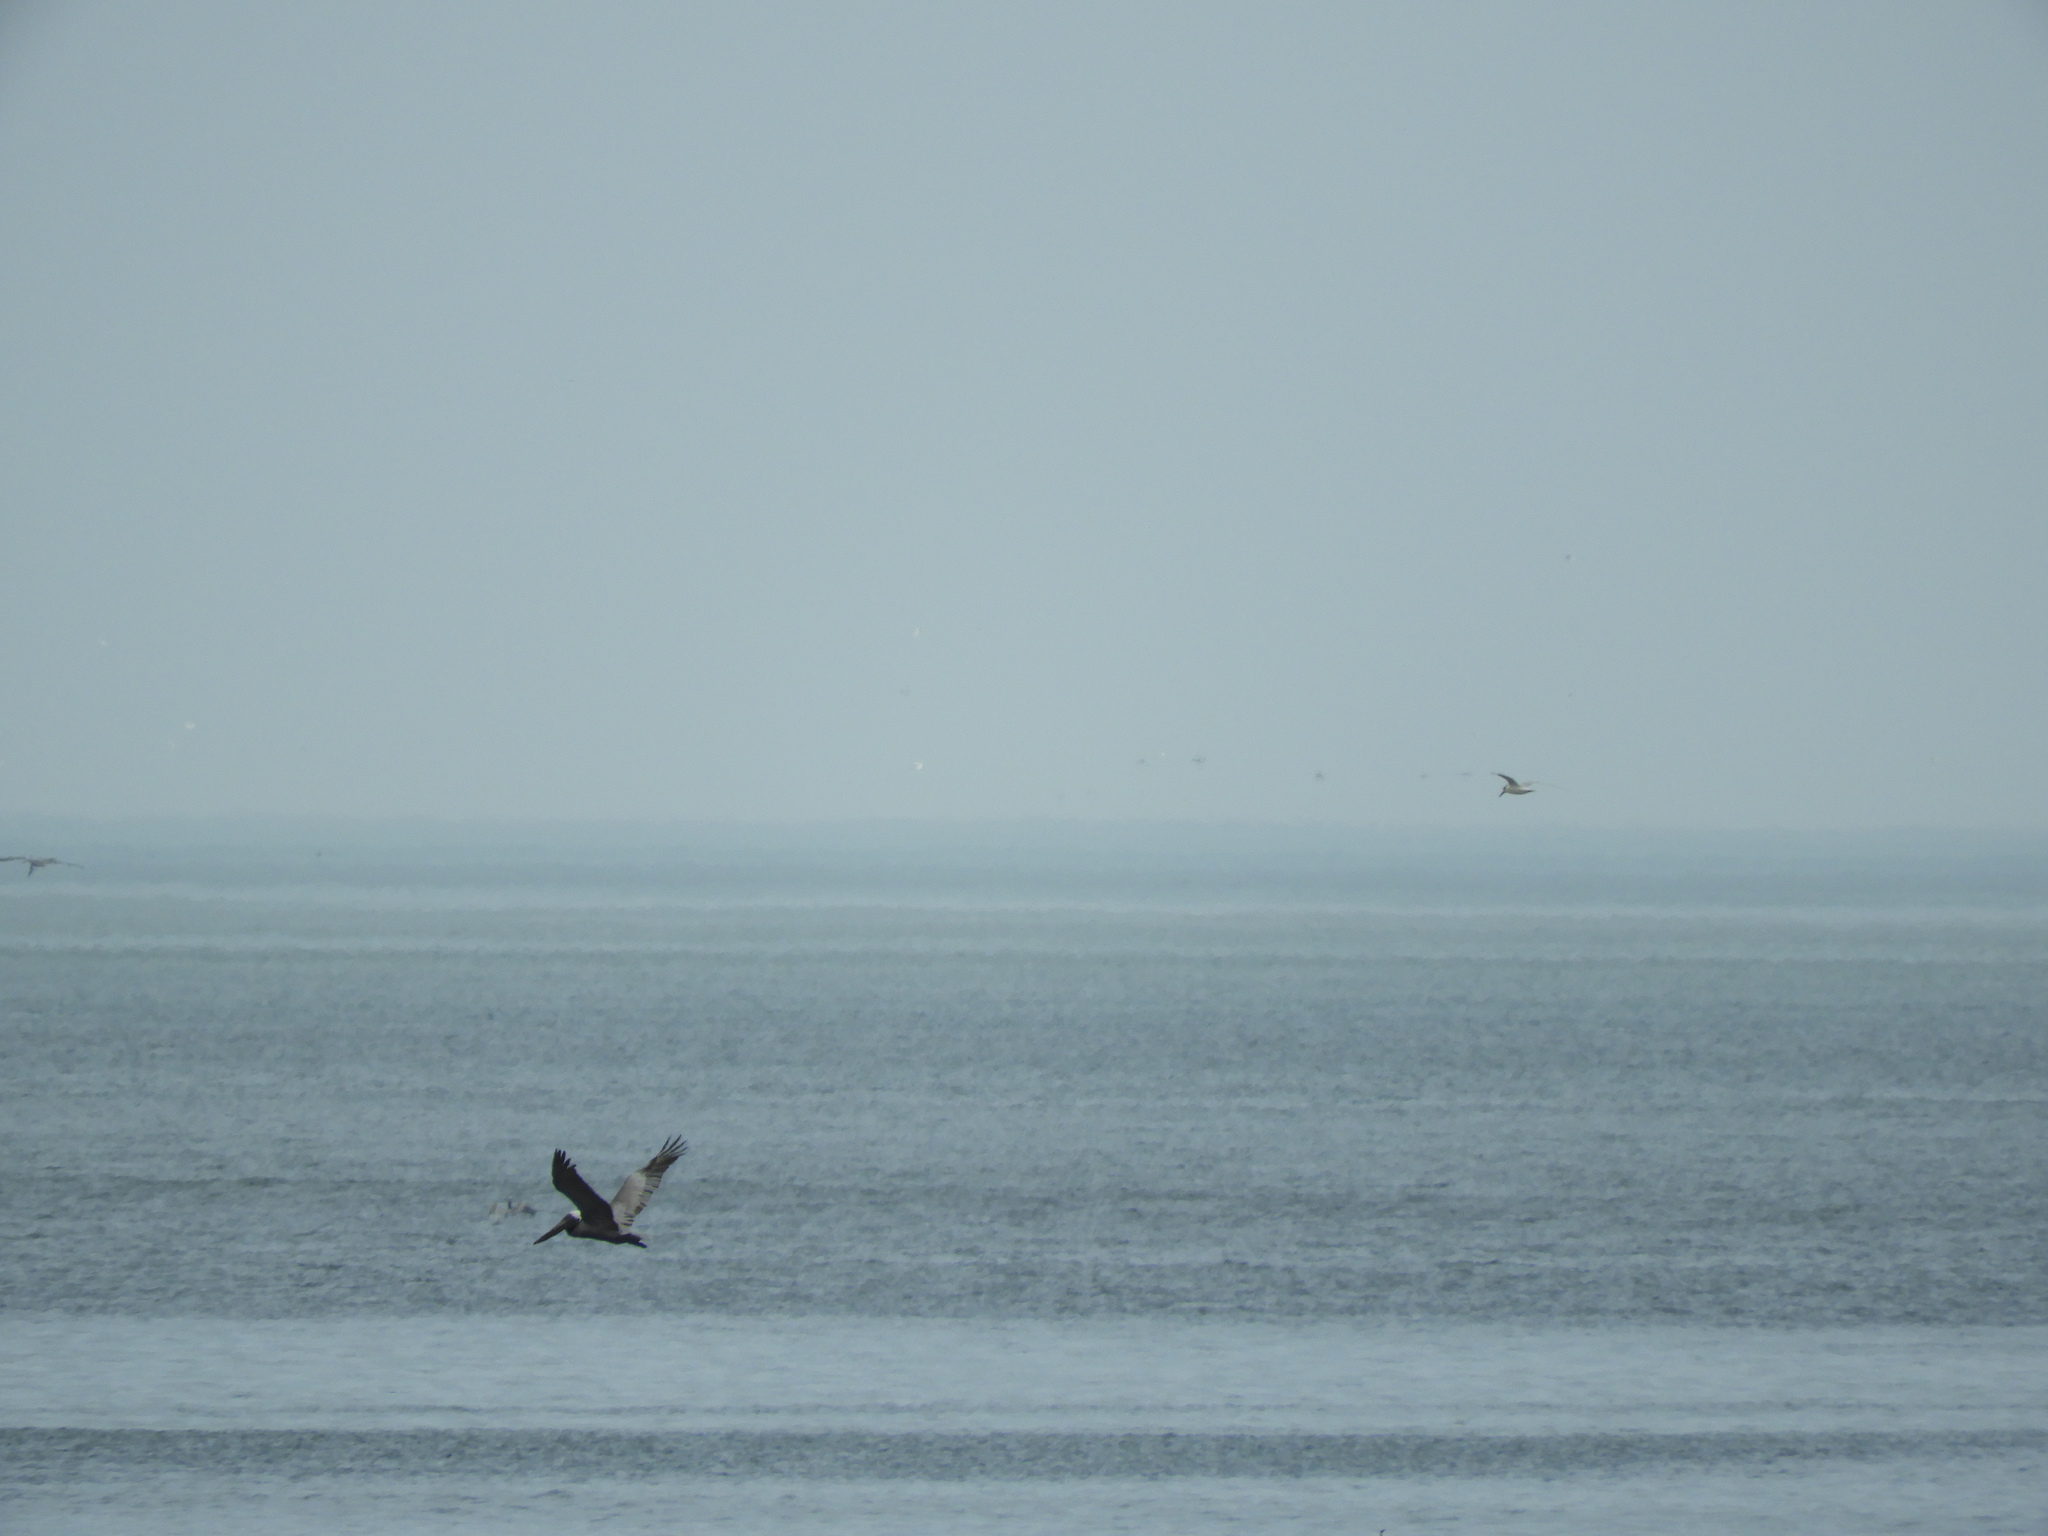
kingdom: Animalia
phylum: Chordata
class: Aves
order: Pelecaniformes
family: Pelecanidae
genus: Pelecanus
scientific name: Pelecanus occidentalis
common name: Brown pelican
